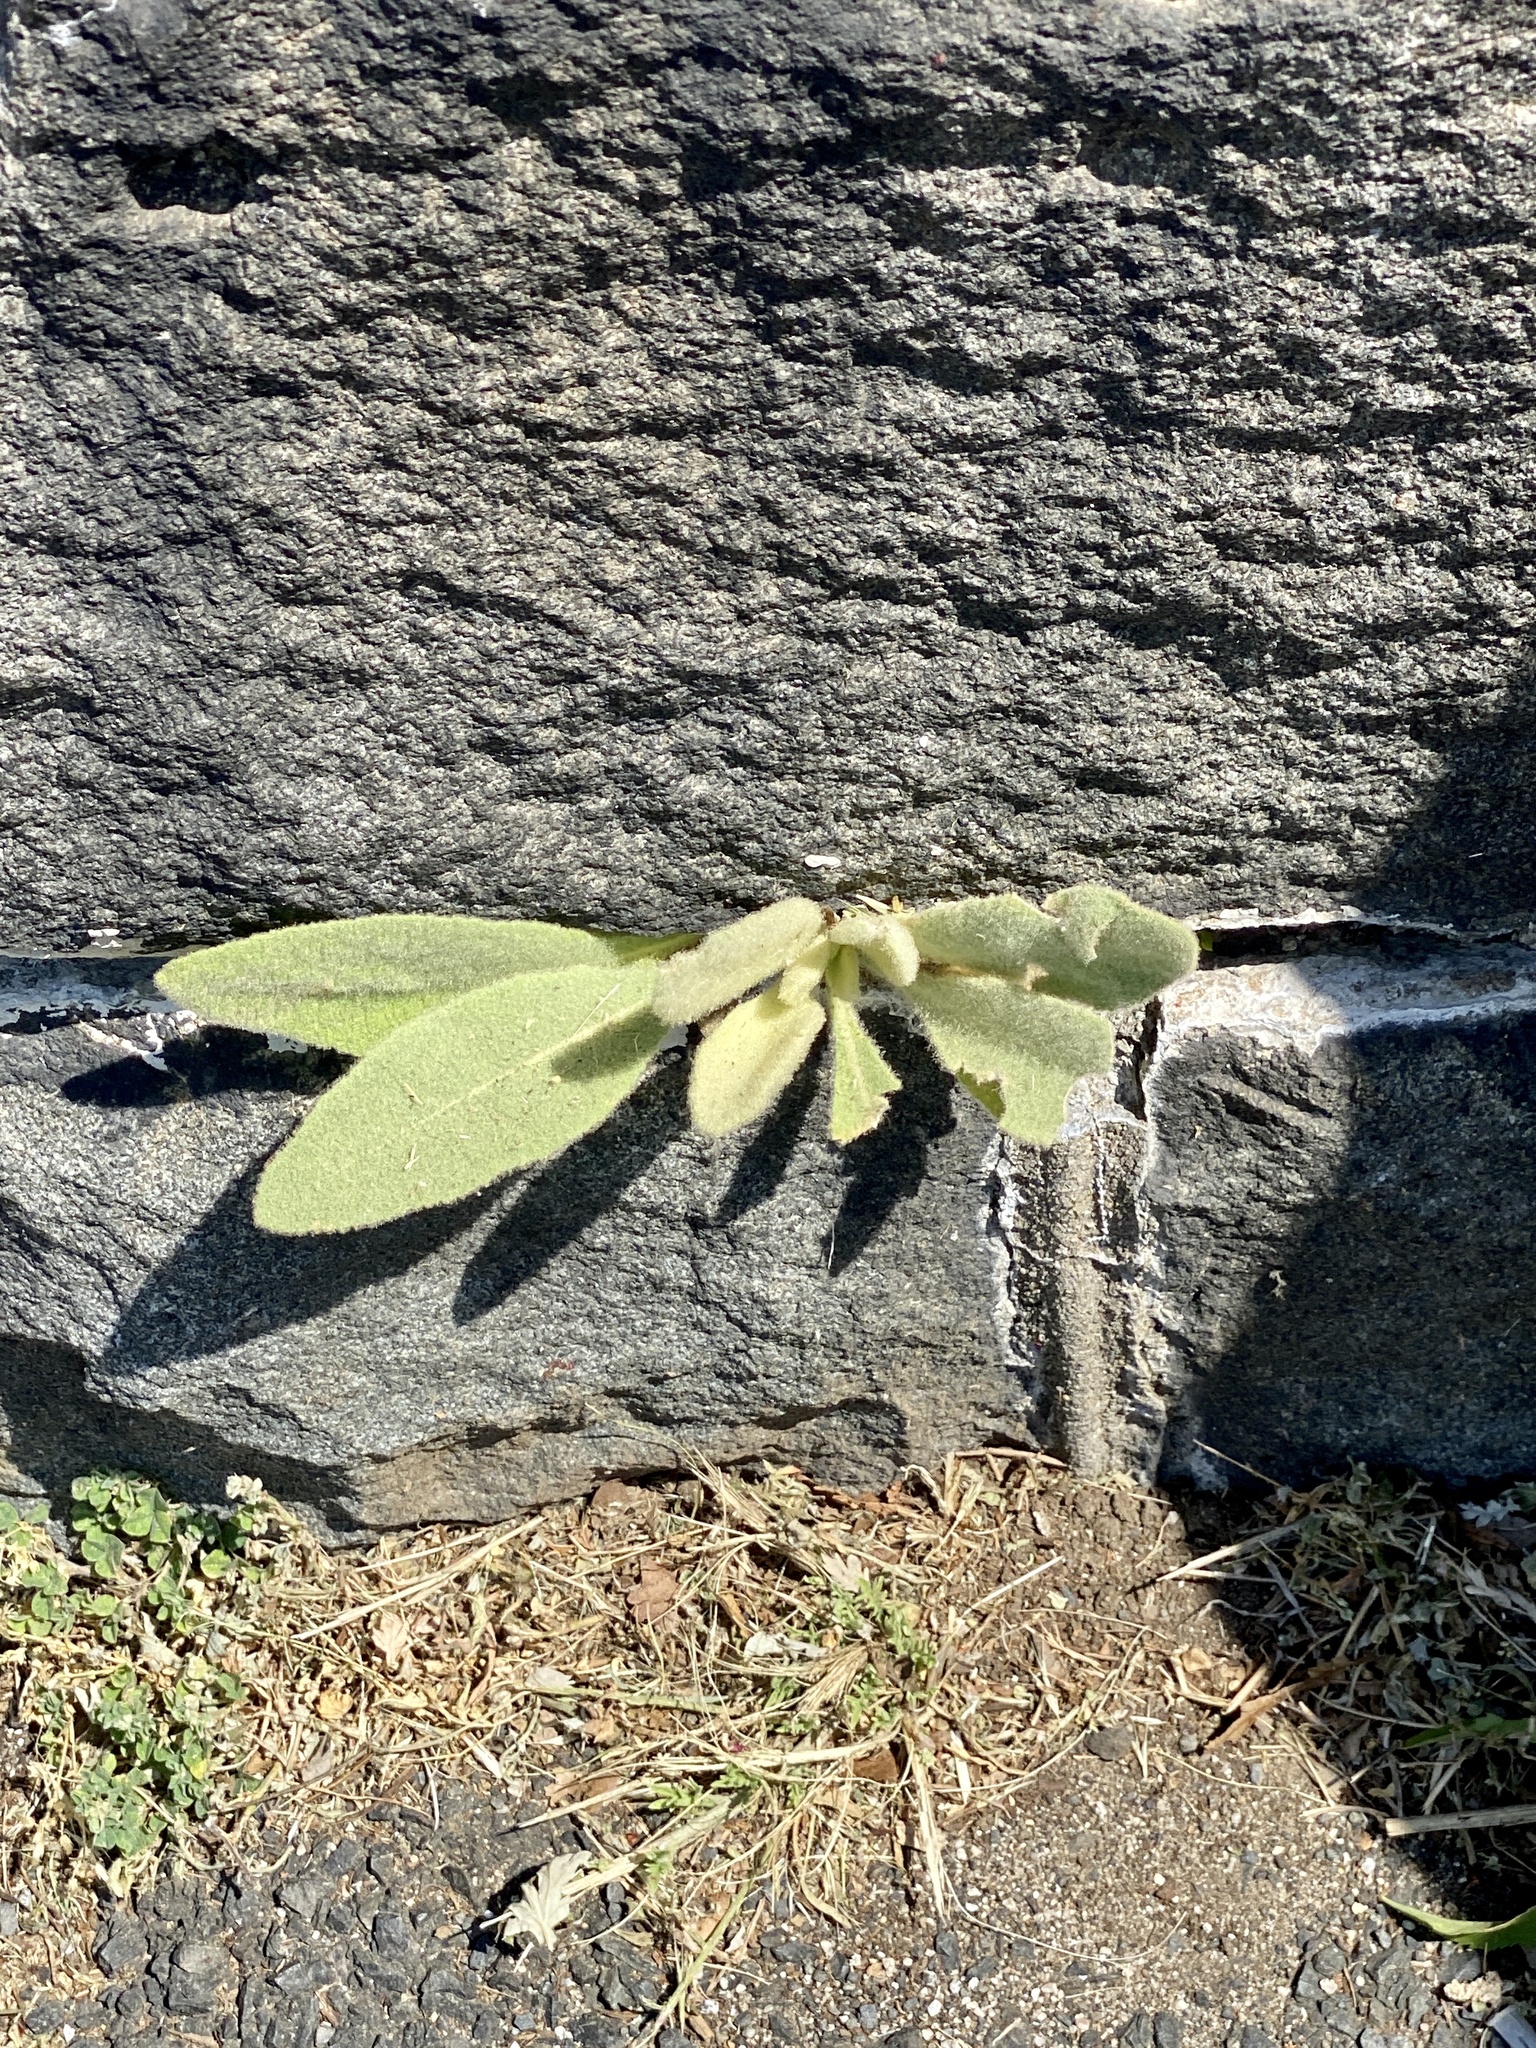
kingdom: Plantae
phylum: Tracheophyta
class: Magnoliopsida
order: Lamiales
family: Scrophulariaceae
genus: Verbascum
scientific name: Verbascum thapsus
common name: Common mullein
